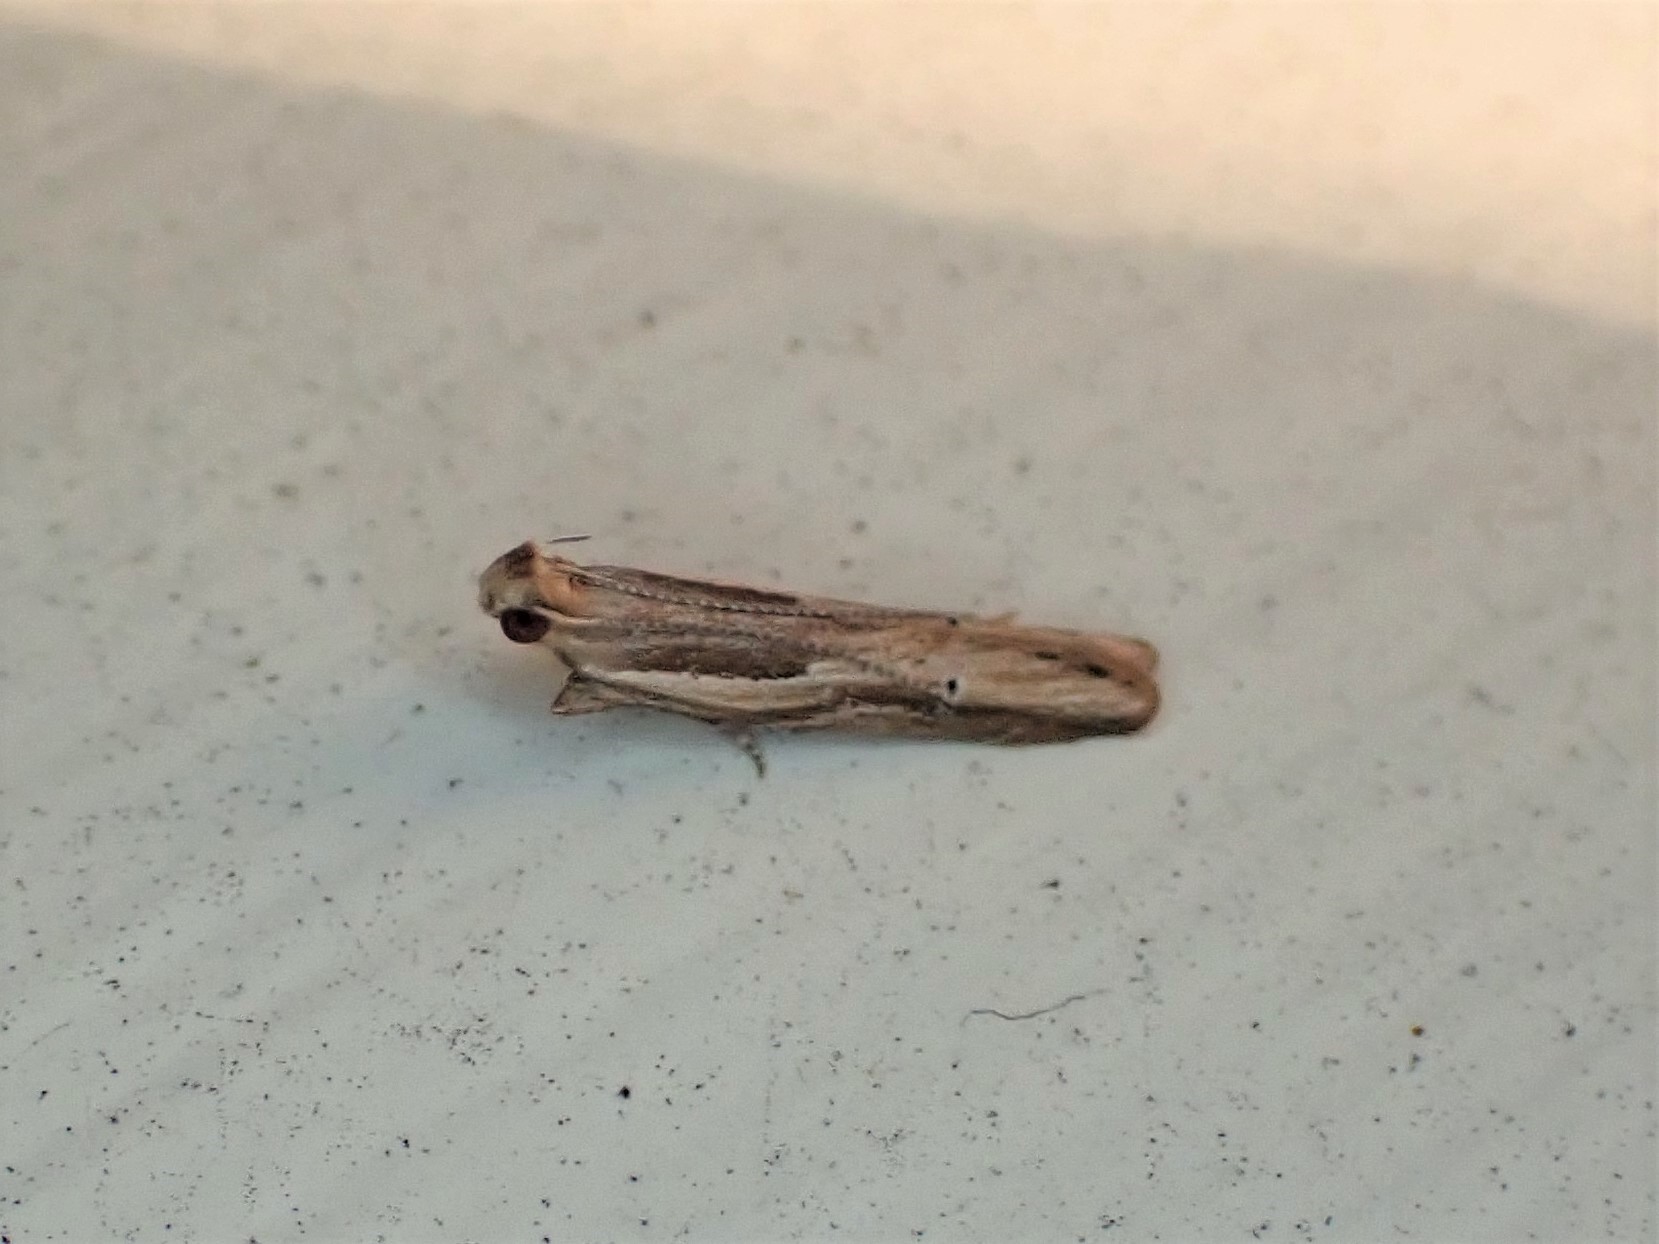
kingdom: Animalia
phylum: Arthropoda
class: Insecta
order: Lepidoptera
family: Depressariidae
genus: Eutorna
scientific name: Eutorna symmorpha
